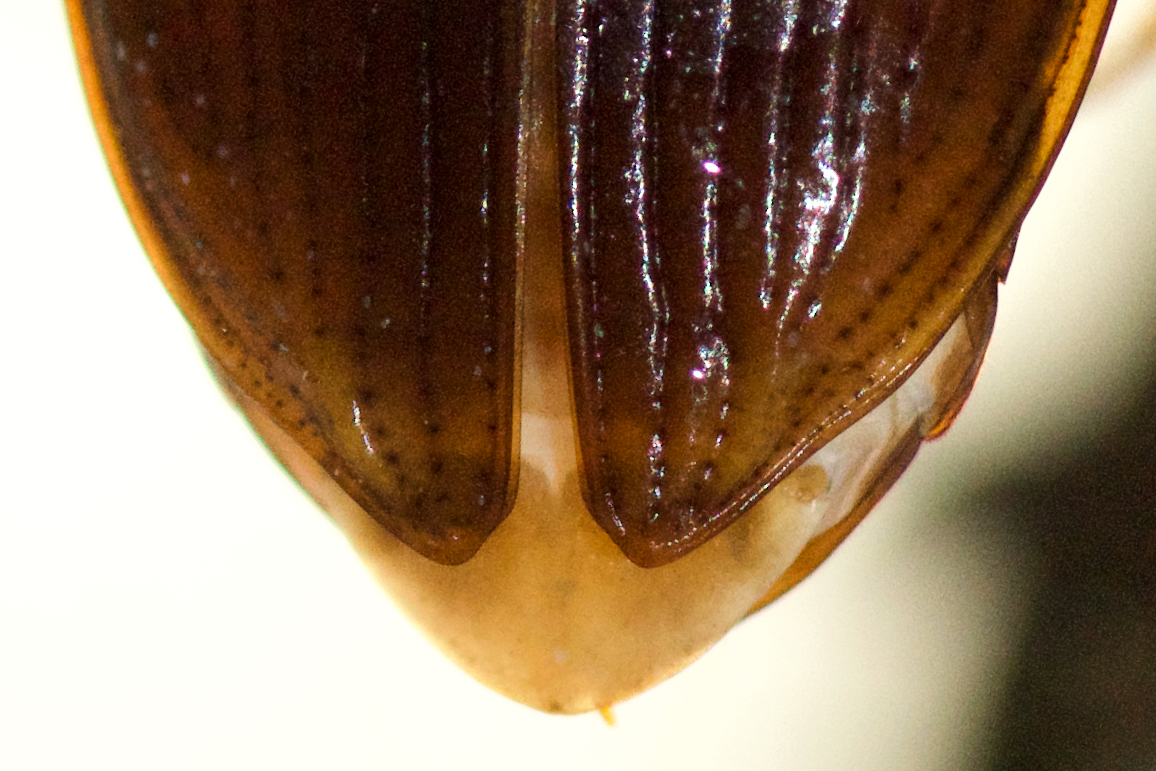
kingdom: Animalia
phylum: Arthropoda
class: Insecta
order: Coleoptera
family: Carabidae
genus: Nebria
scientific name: Nebria lacustris
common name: Lacustrine gazelle beetle
